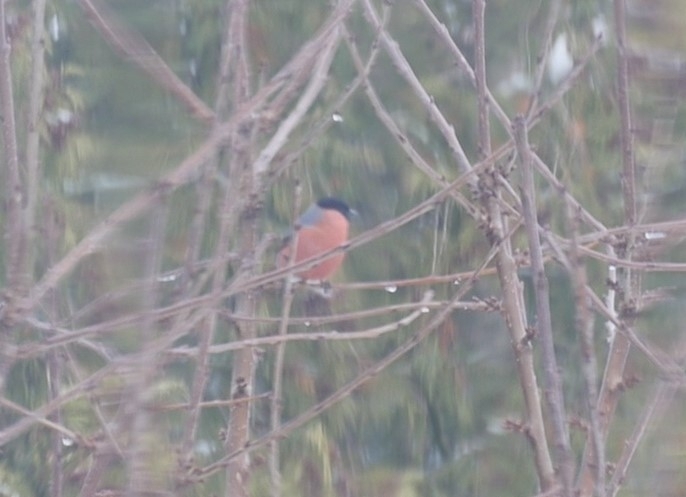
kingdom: Animalia
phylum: Chordata
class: Aves
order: Passeriformes
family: Fringillidae
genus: Pyrrhula
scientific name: Pyrrhula pyrrhula
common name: Eurasian bullfinch
